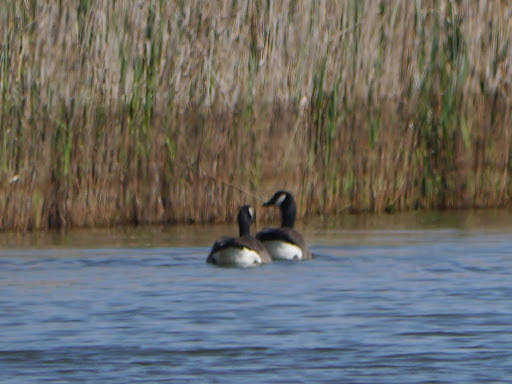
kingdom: Animalia
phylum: Chordata
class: Aves
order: Anseriformes
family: Anatidae
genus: Branta
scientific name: Branta canadensis
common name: Canada goose
